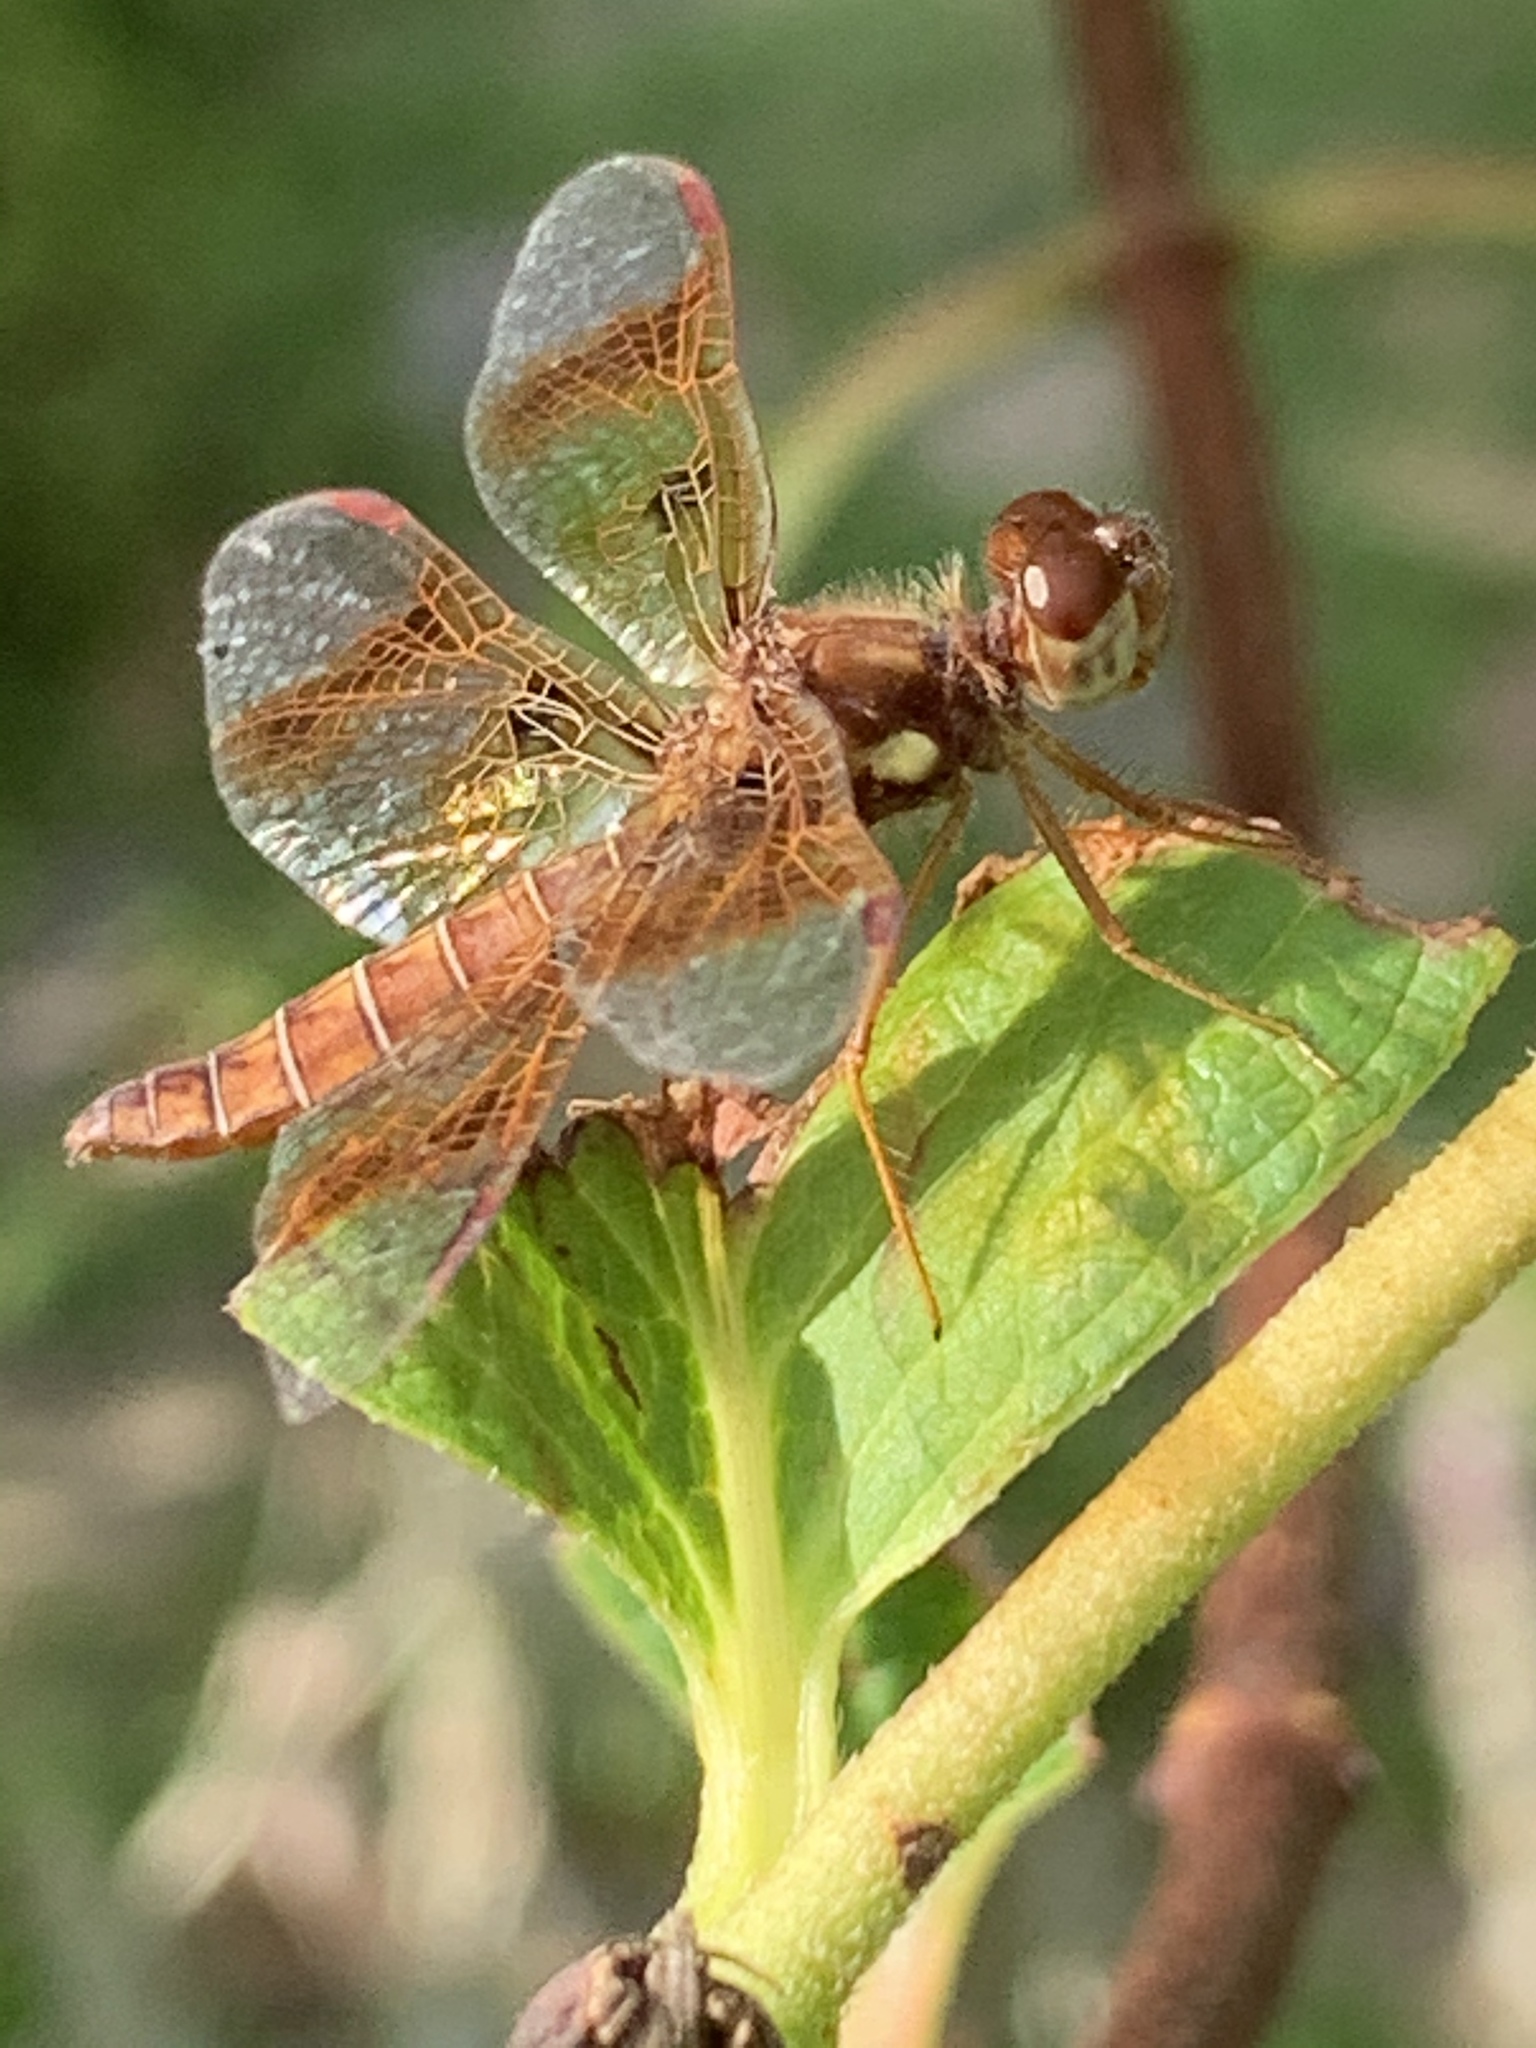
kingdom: Animalia
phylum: Arthropoda
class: Insecta
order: Odonata
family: Libellulidae
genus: Perithemis
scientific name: Perithemis tenera
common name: Eastern amberwing
